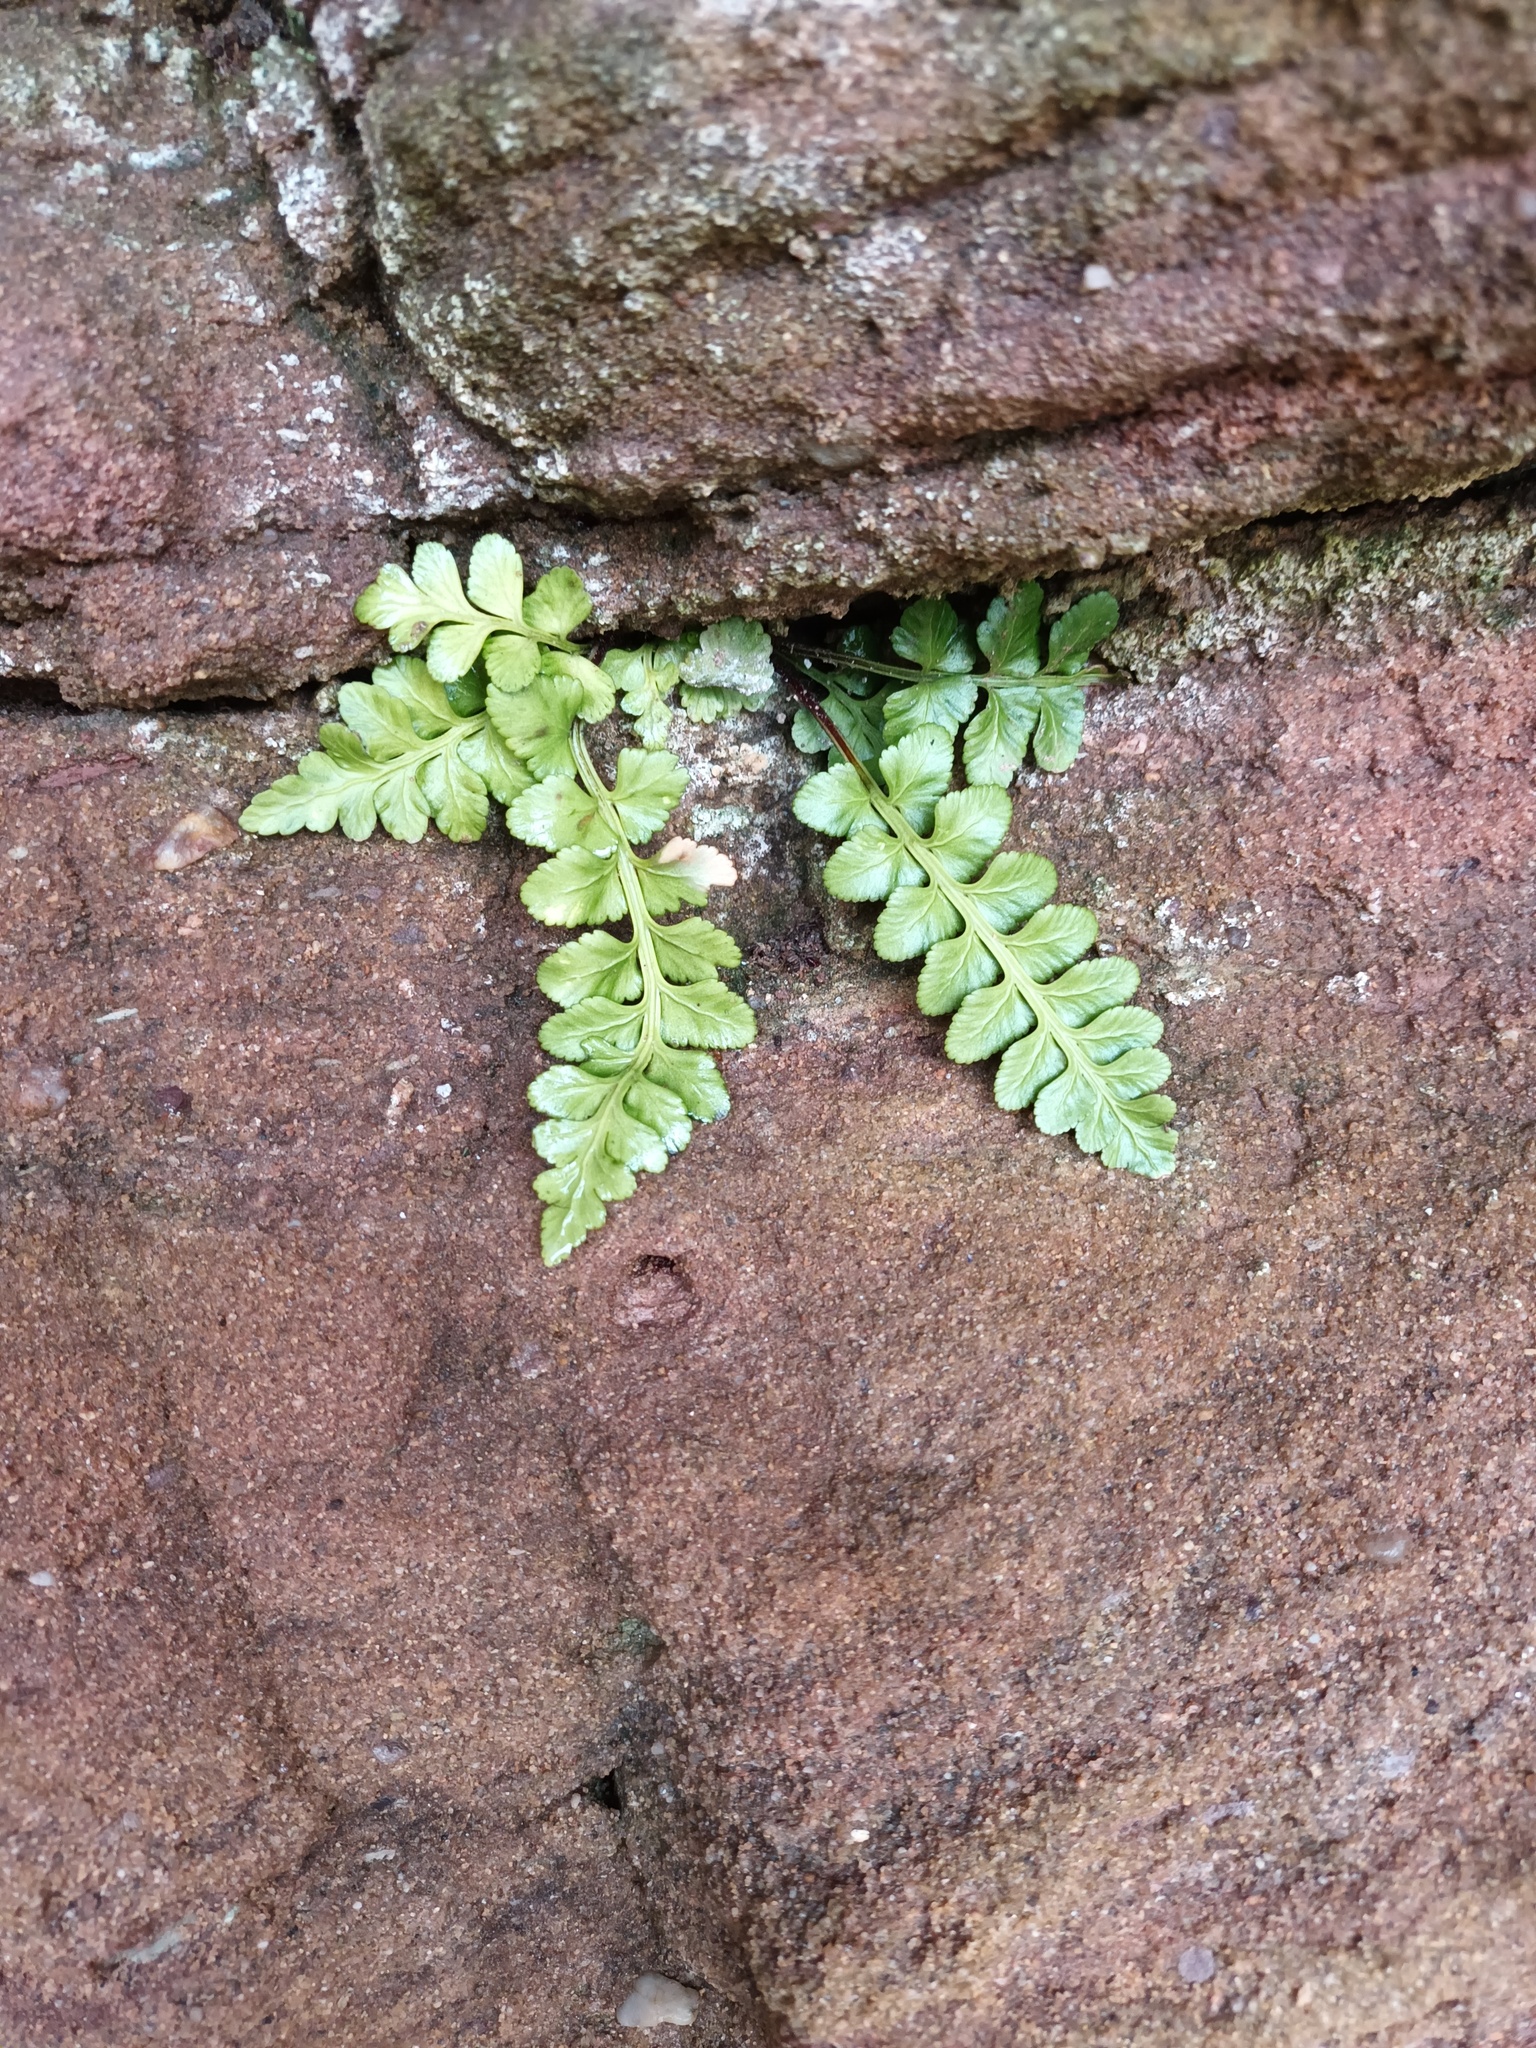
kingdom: Plantae
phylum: Tracheophyta
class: Polypodiopsida
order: Polypodiales
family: Aspleniaceae
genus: Asplenium
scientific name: Asplenium marinum
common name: Sea spleenwort
